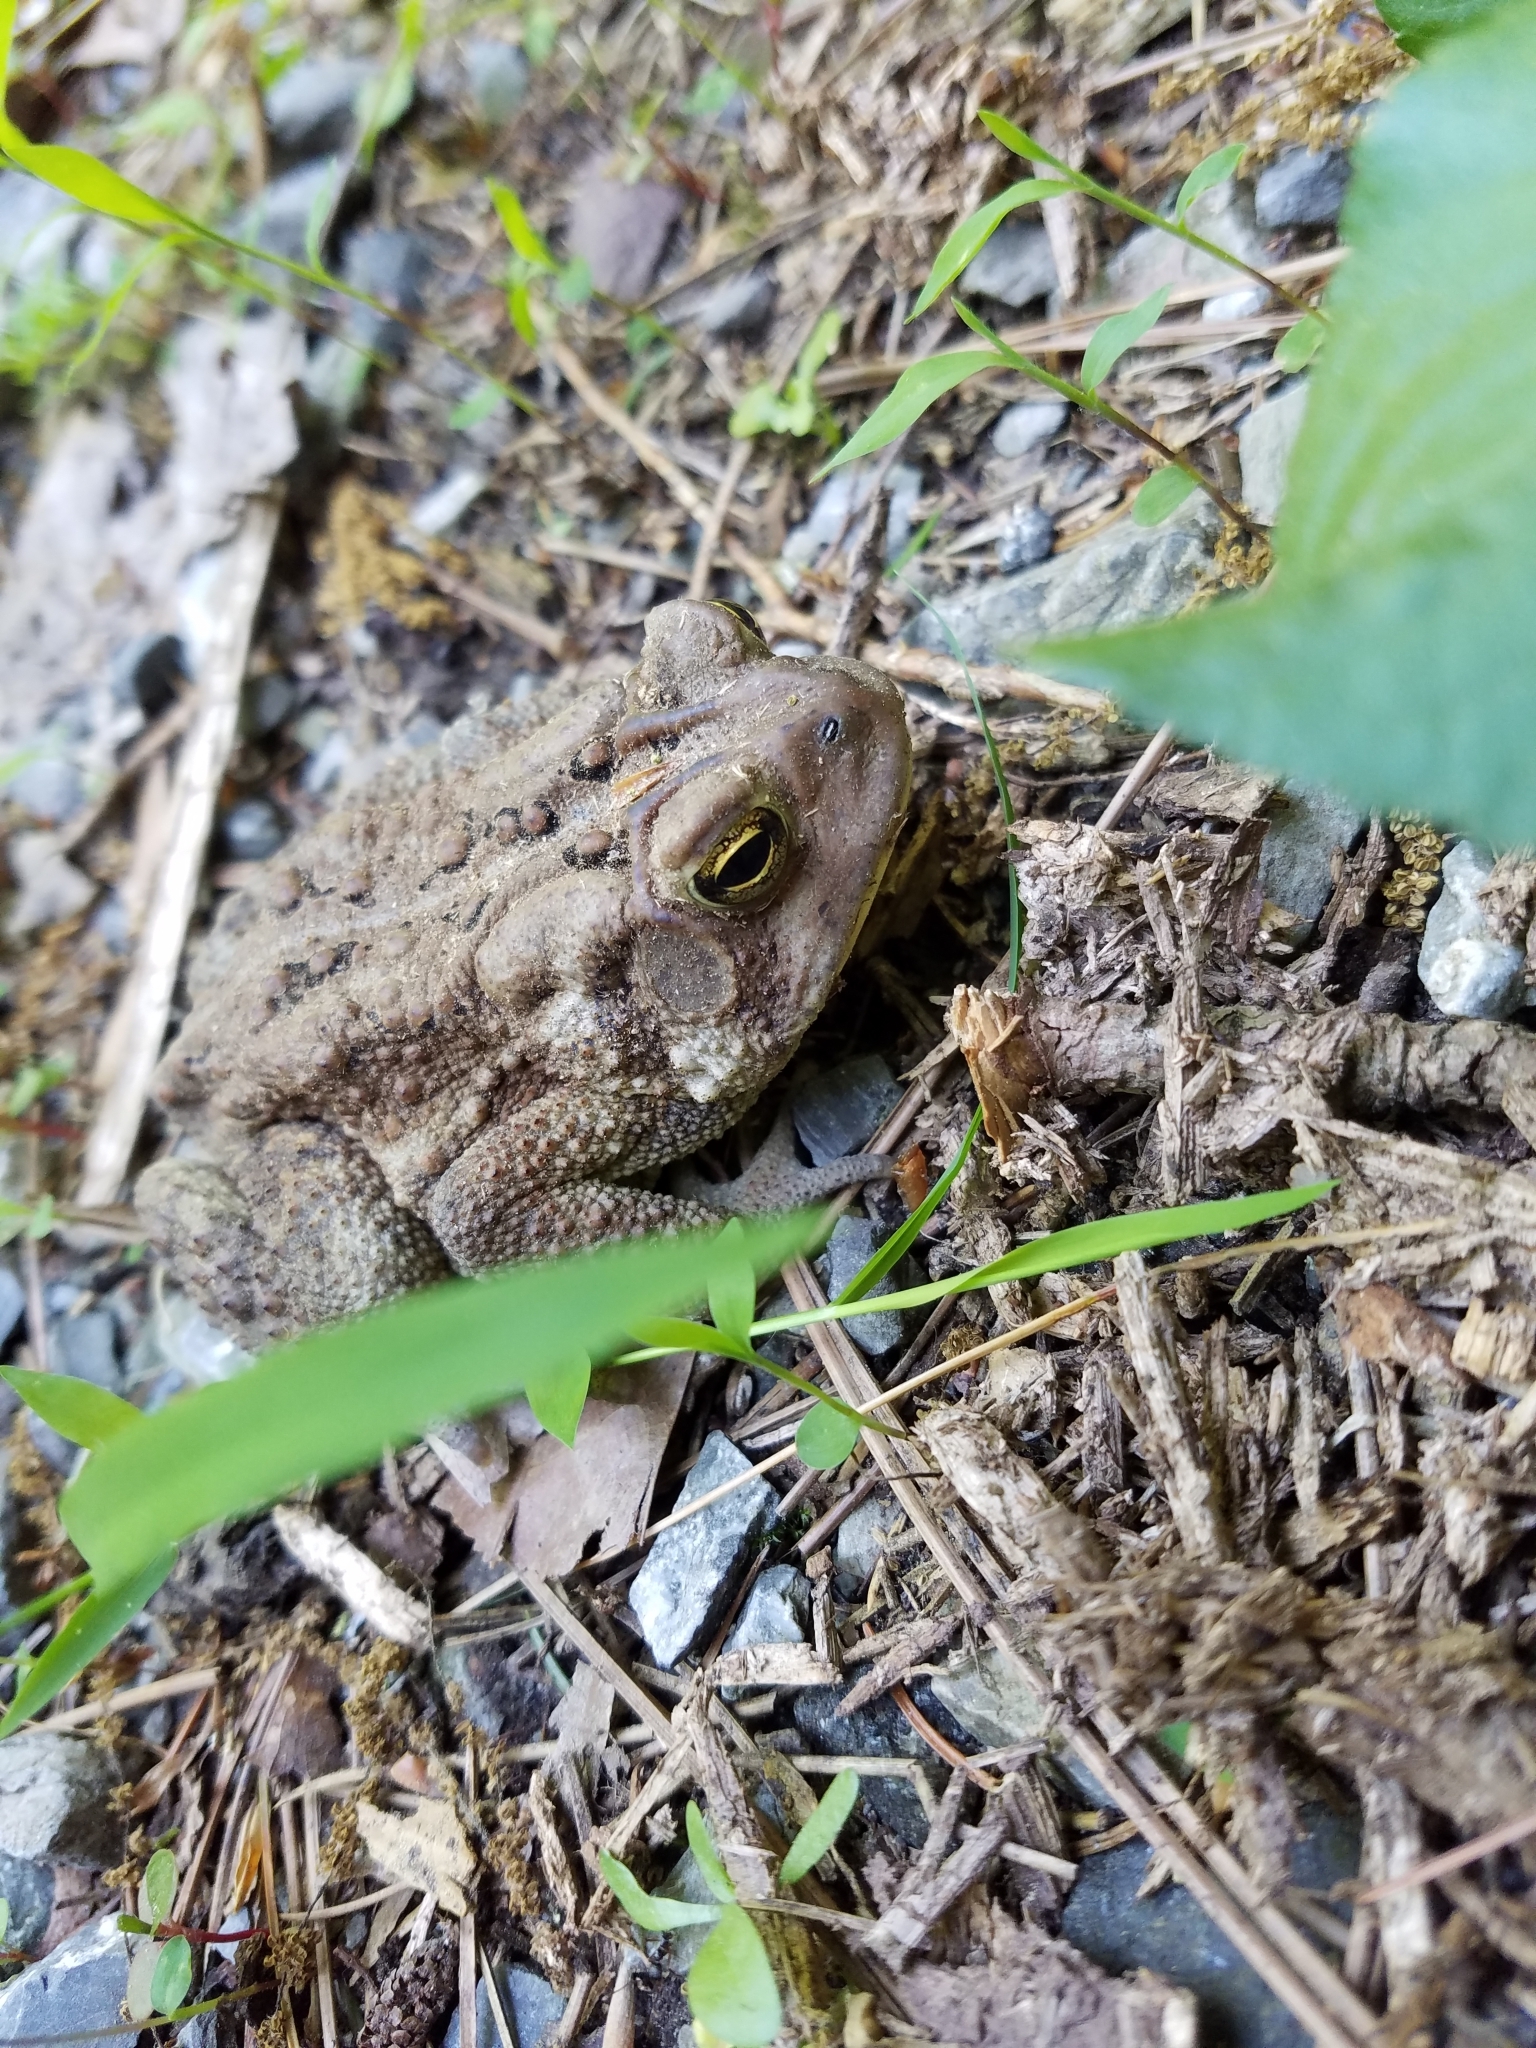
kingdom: Animalia
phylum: Chordata
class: Amphibia
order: Anura
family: Bufonidae
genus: Anaxyrus
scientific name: Anaxyrus americanus
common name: American toad
